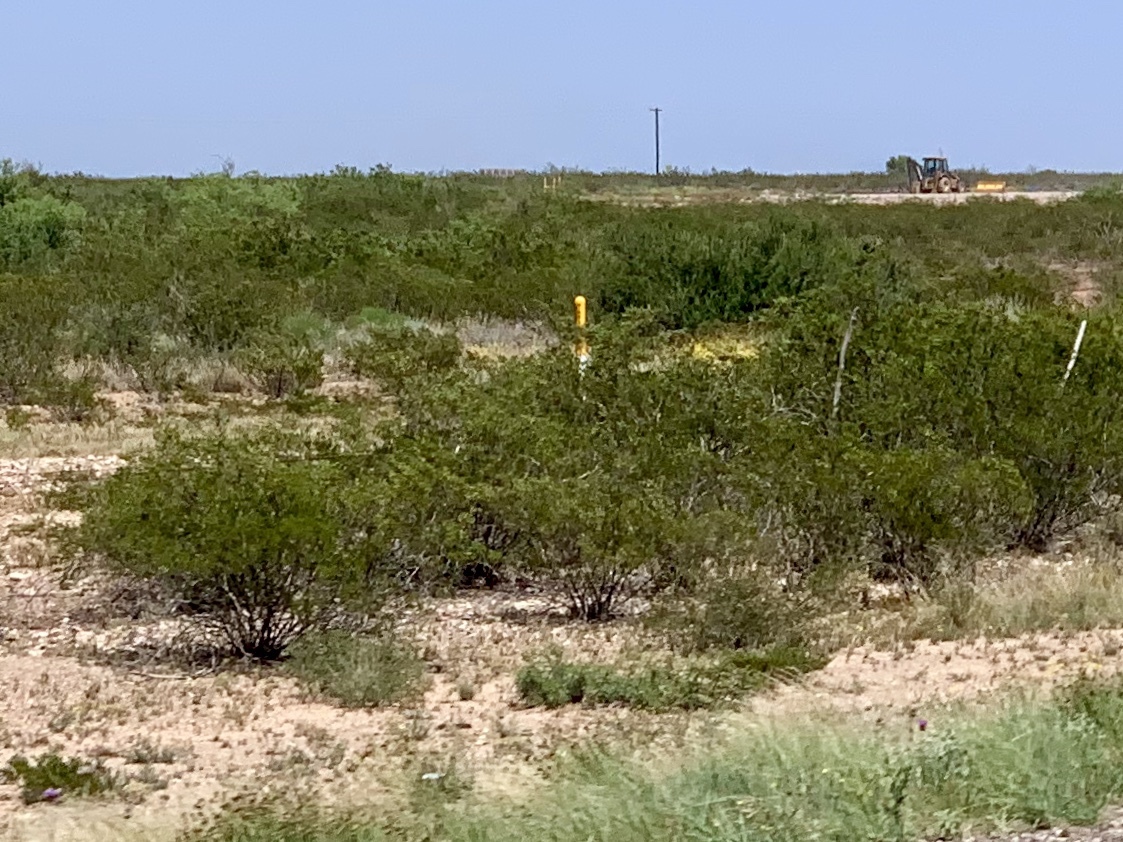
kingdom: Plantae
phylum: Tracheophyta
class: Magnoliopsida
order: Zygophyllales
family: Zygophyllaceae
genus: Larrea
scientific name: Larrea tridentata
